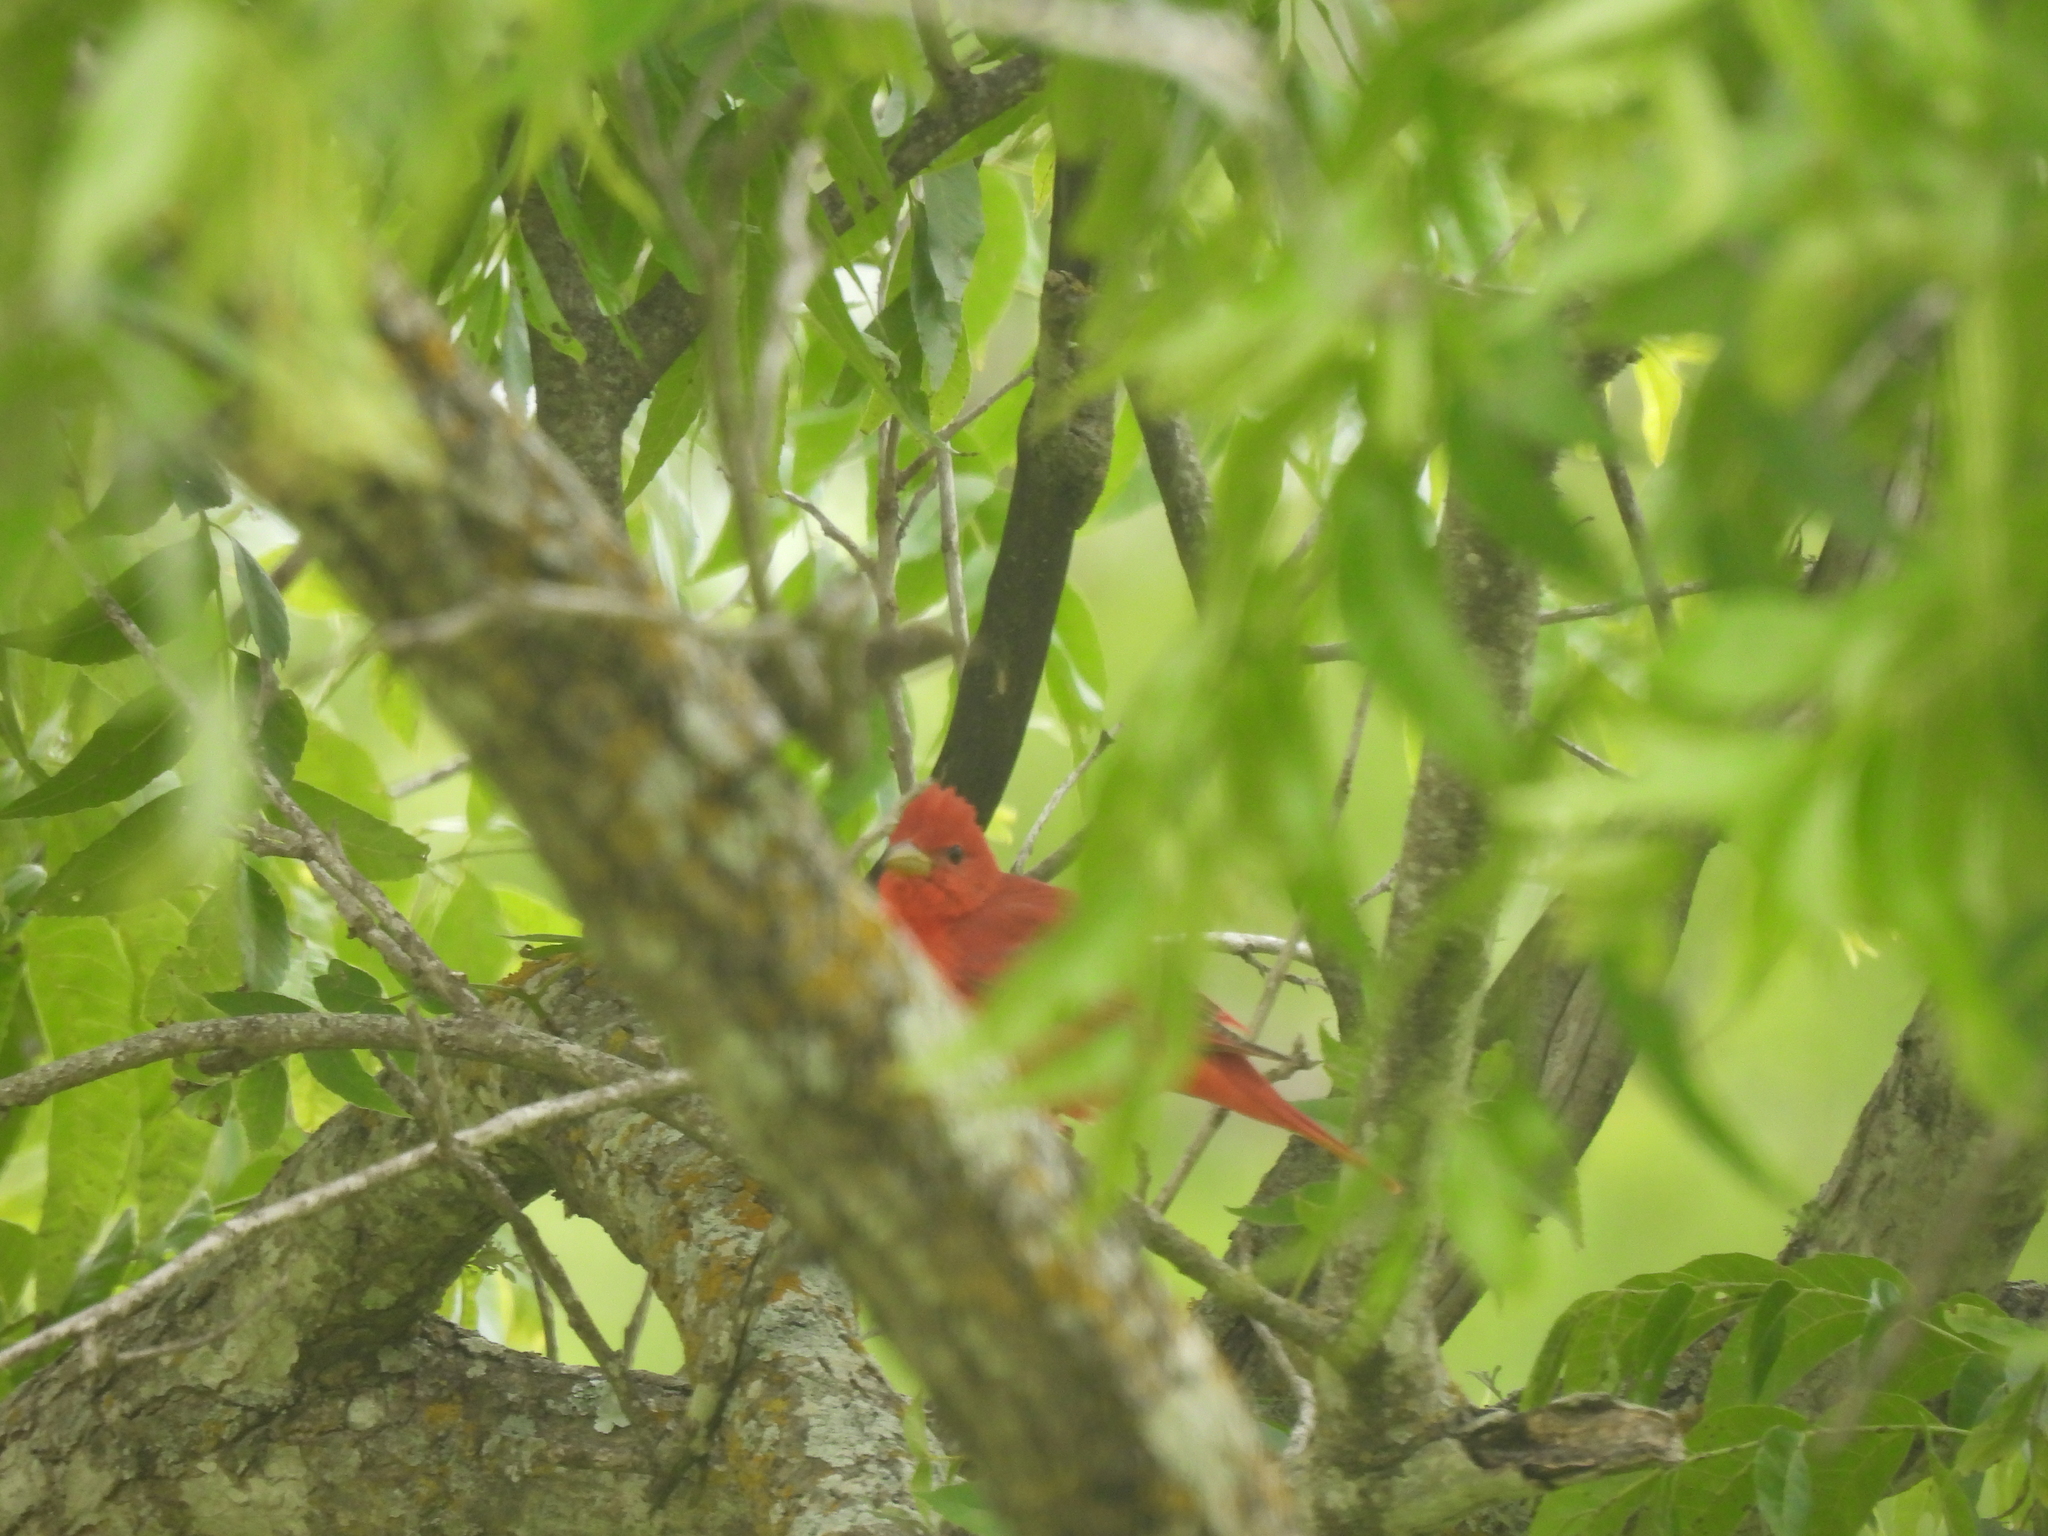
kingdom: Animalia
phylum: Chordata
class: Aves
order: Passeriformes
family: Cardinalidae
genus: Piranga
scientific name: Piranga rubra
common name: Summer tanager
